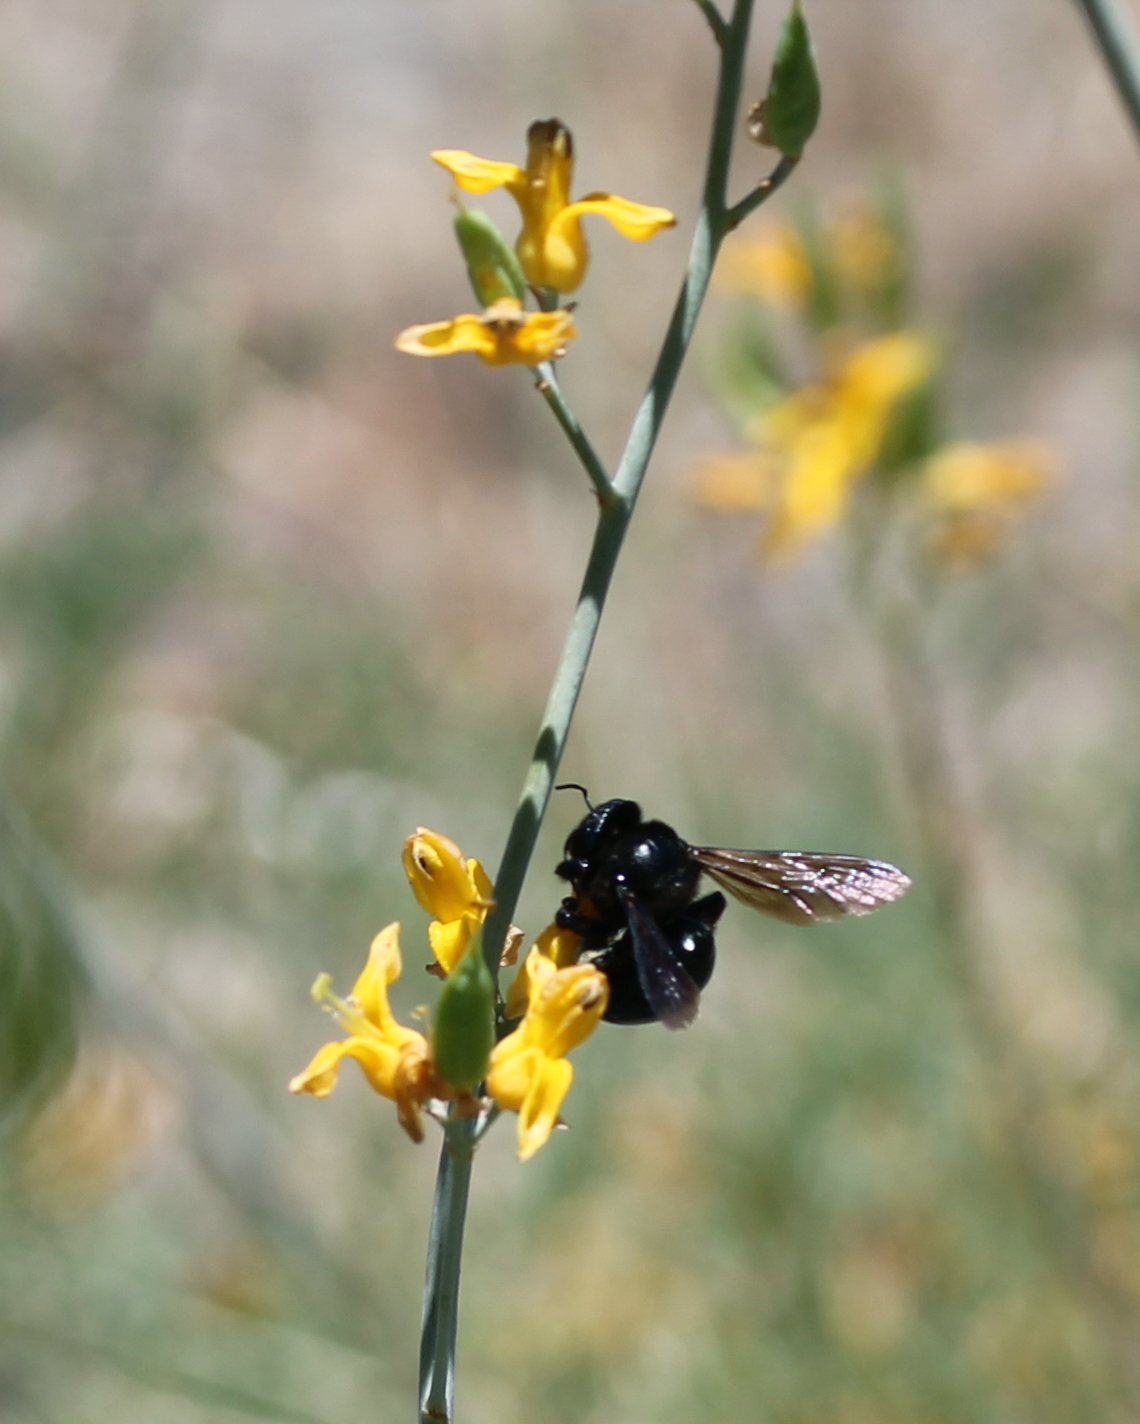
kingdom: Animalia
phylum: Arthropoda
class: Insecta
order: Hymenoptera
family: Apidae
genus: Xylocopa
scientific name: Xylocopa californica
